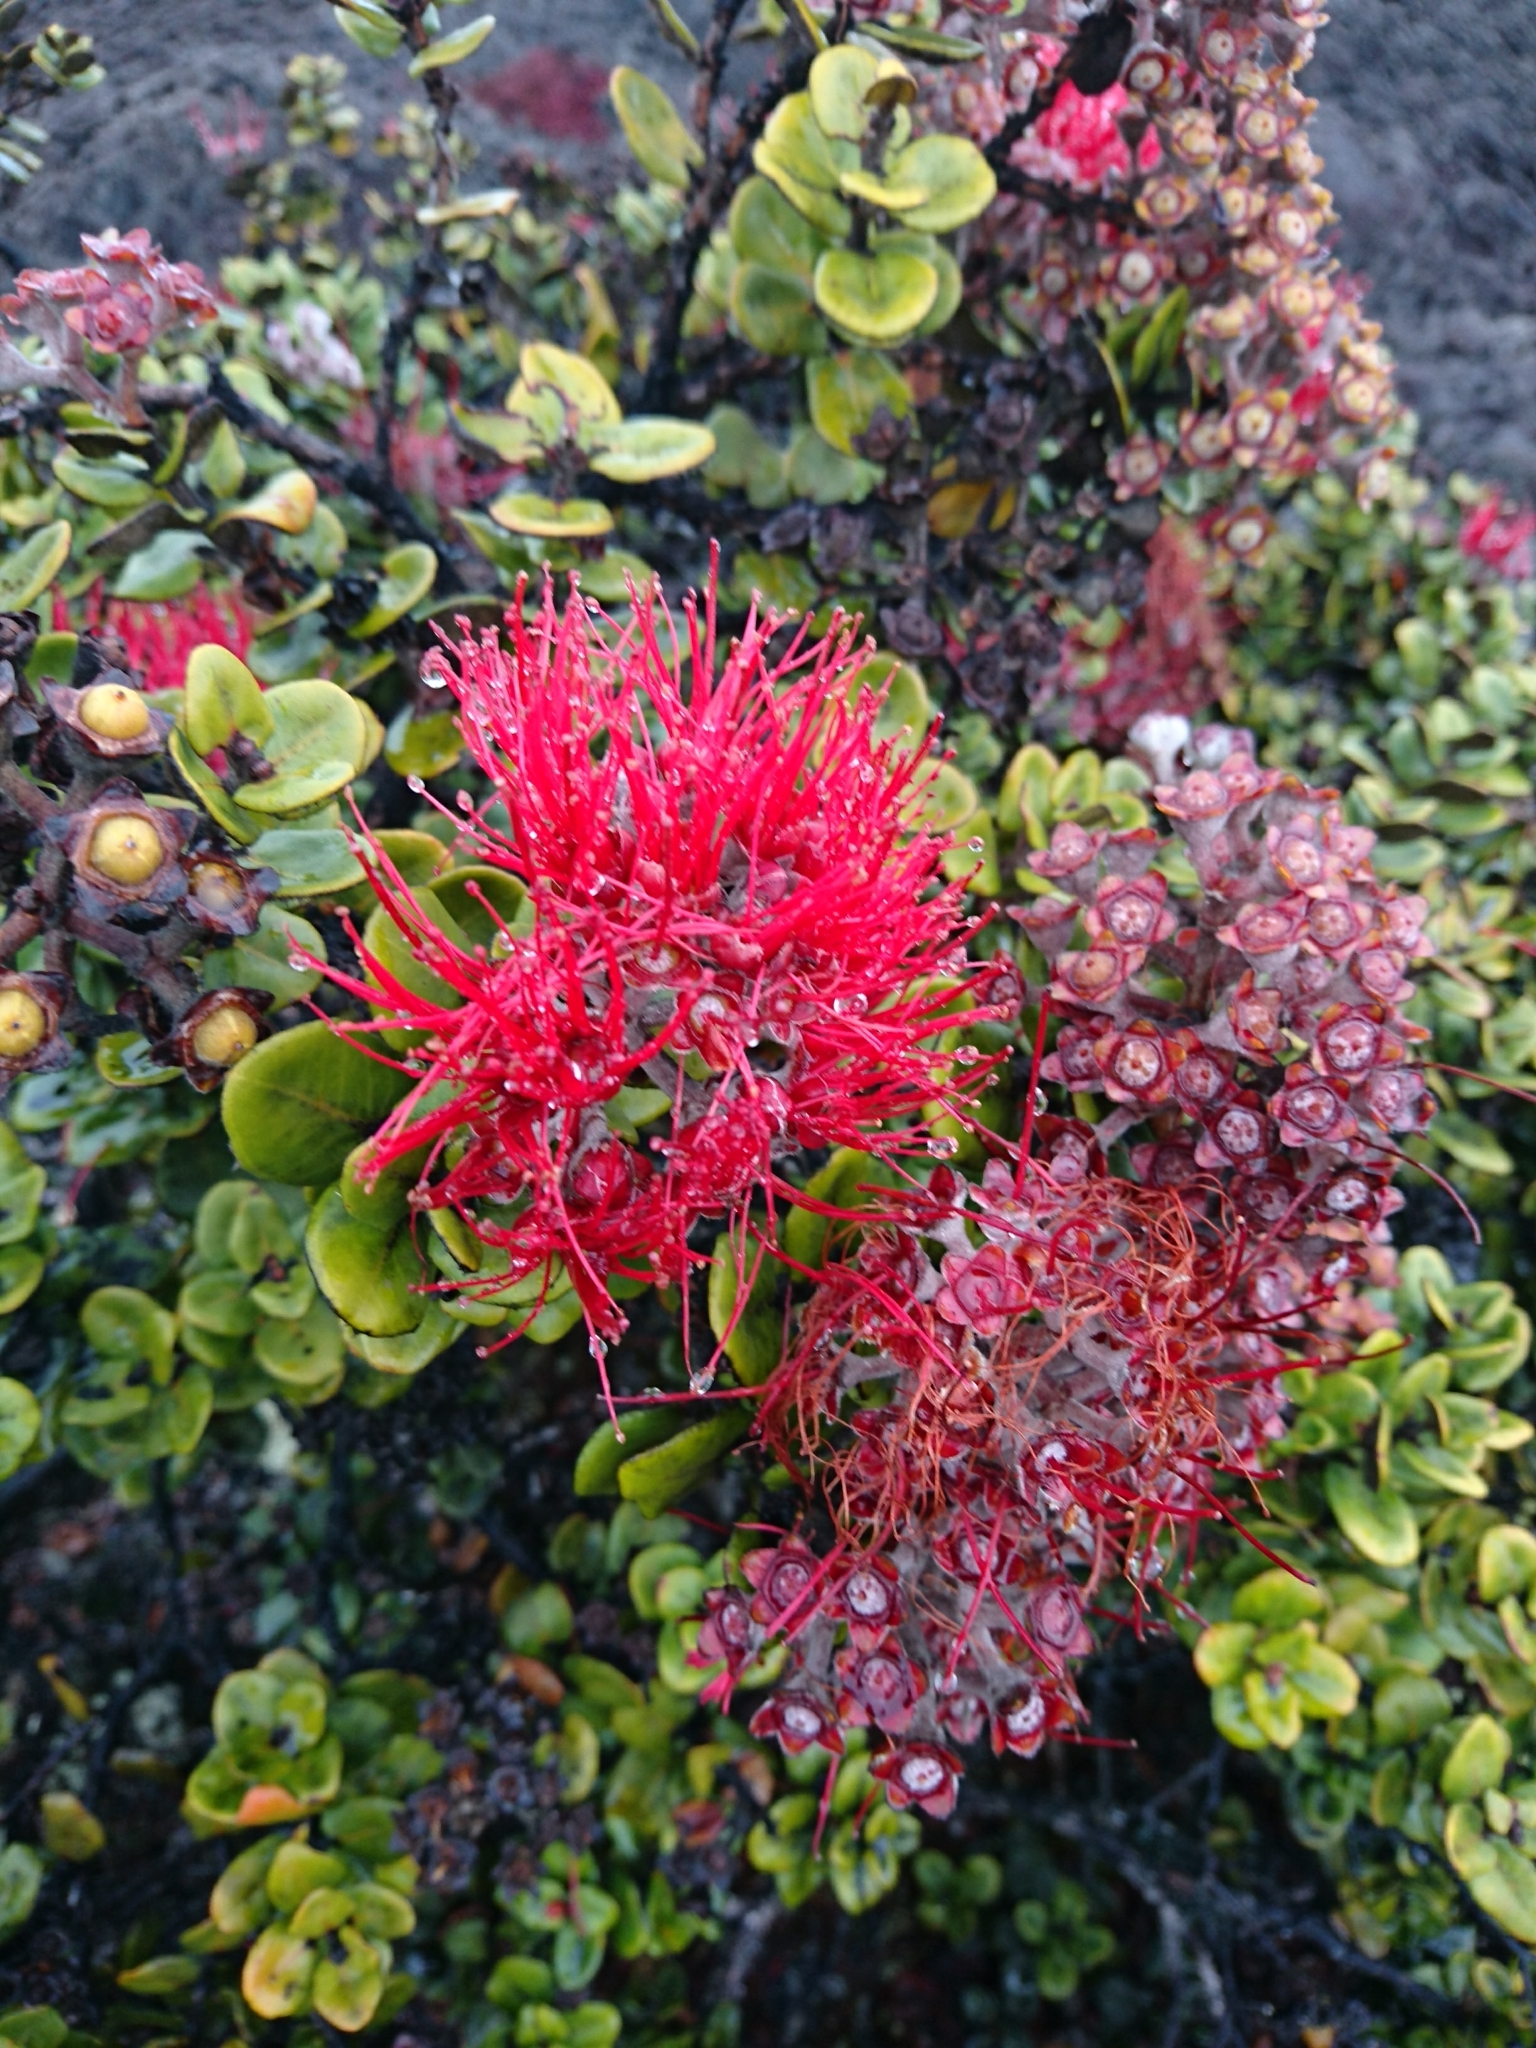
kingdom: Plantae
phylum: Tracheophyta
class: Magnoliopsida
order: Myrtales
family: Myrtaceae
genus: Metrosideros
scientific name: Metrosideros polymorpha
